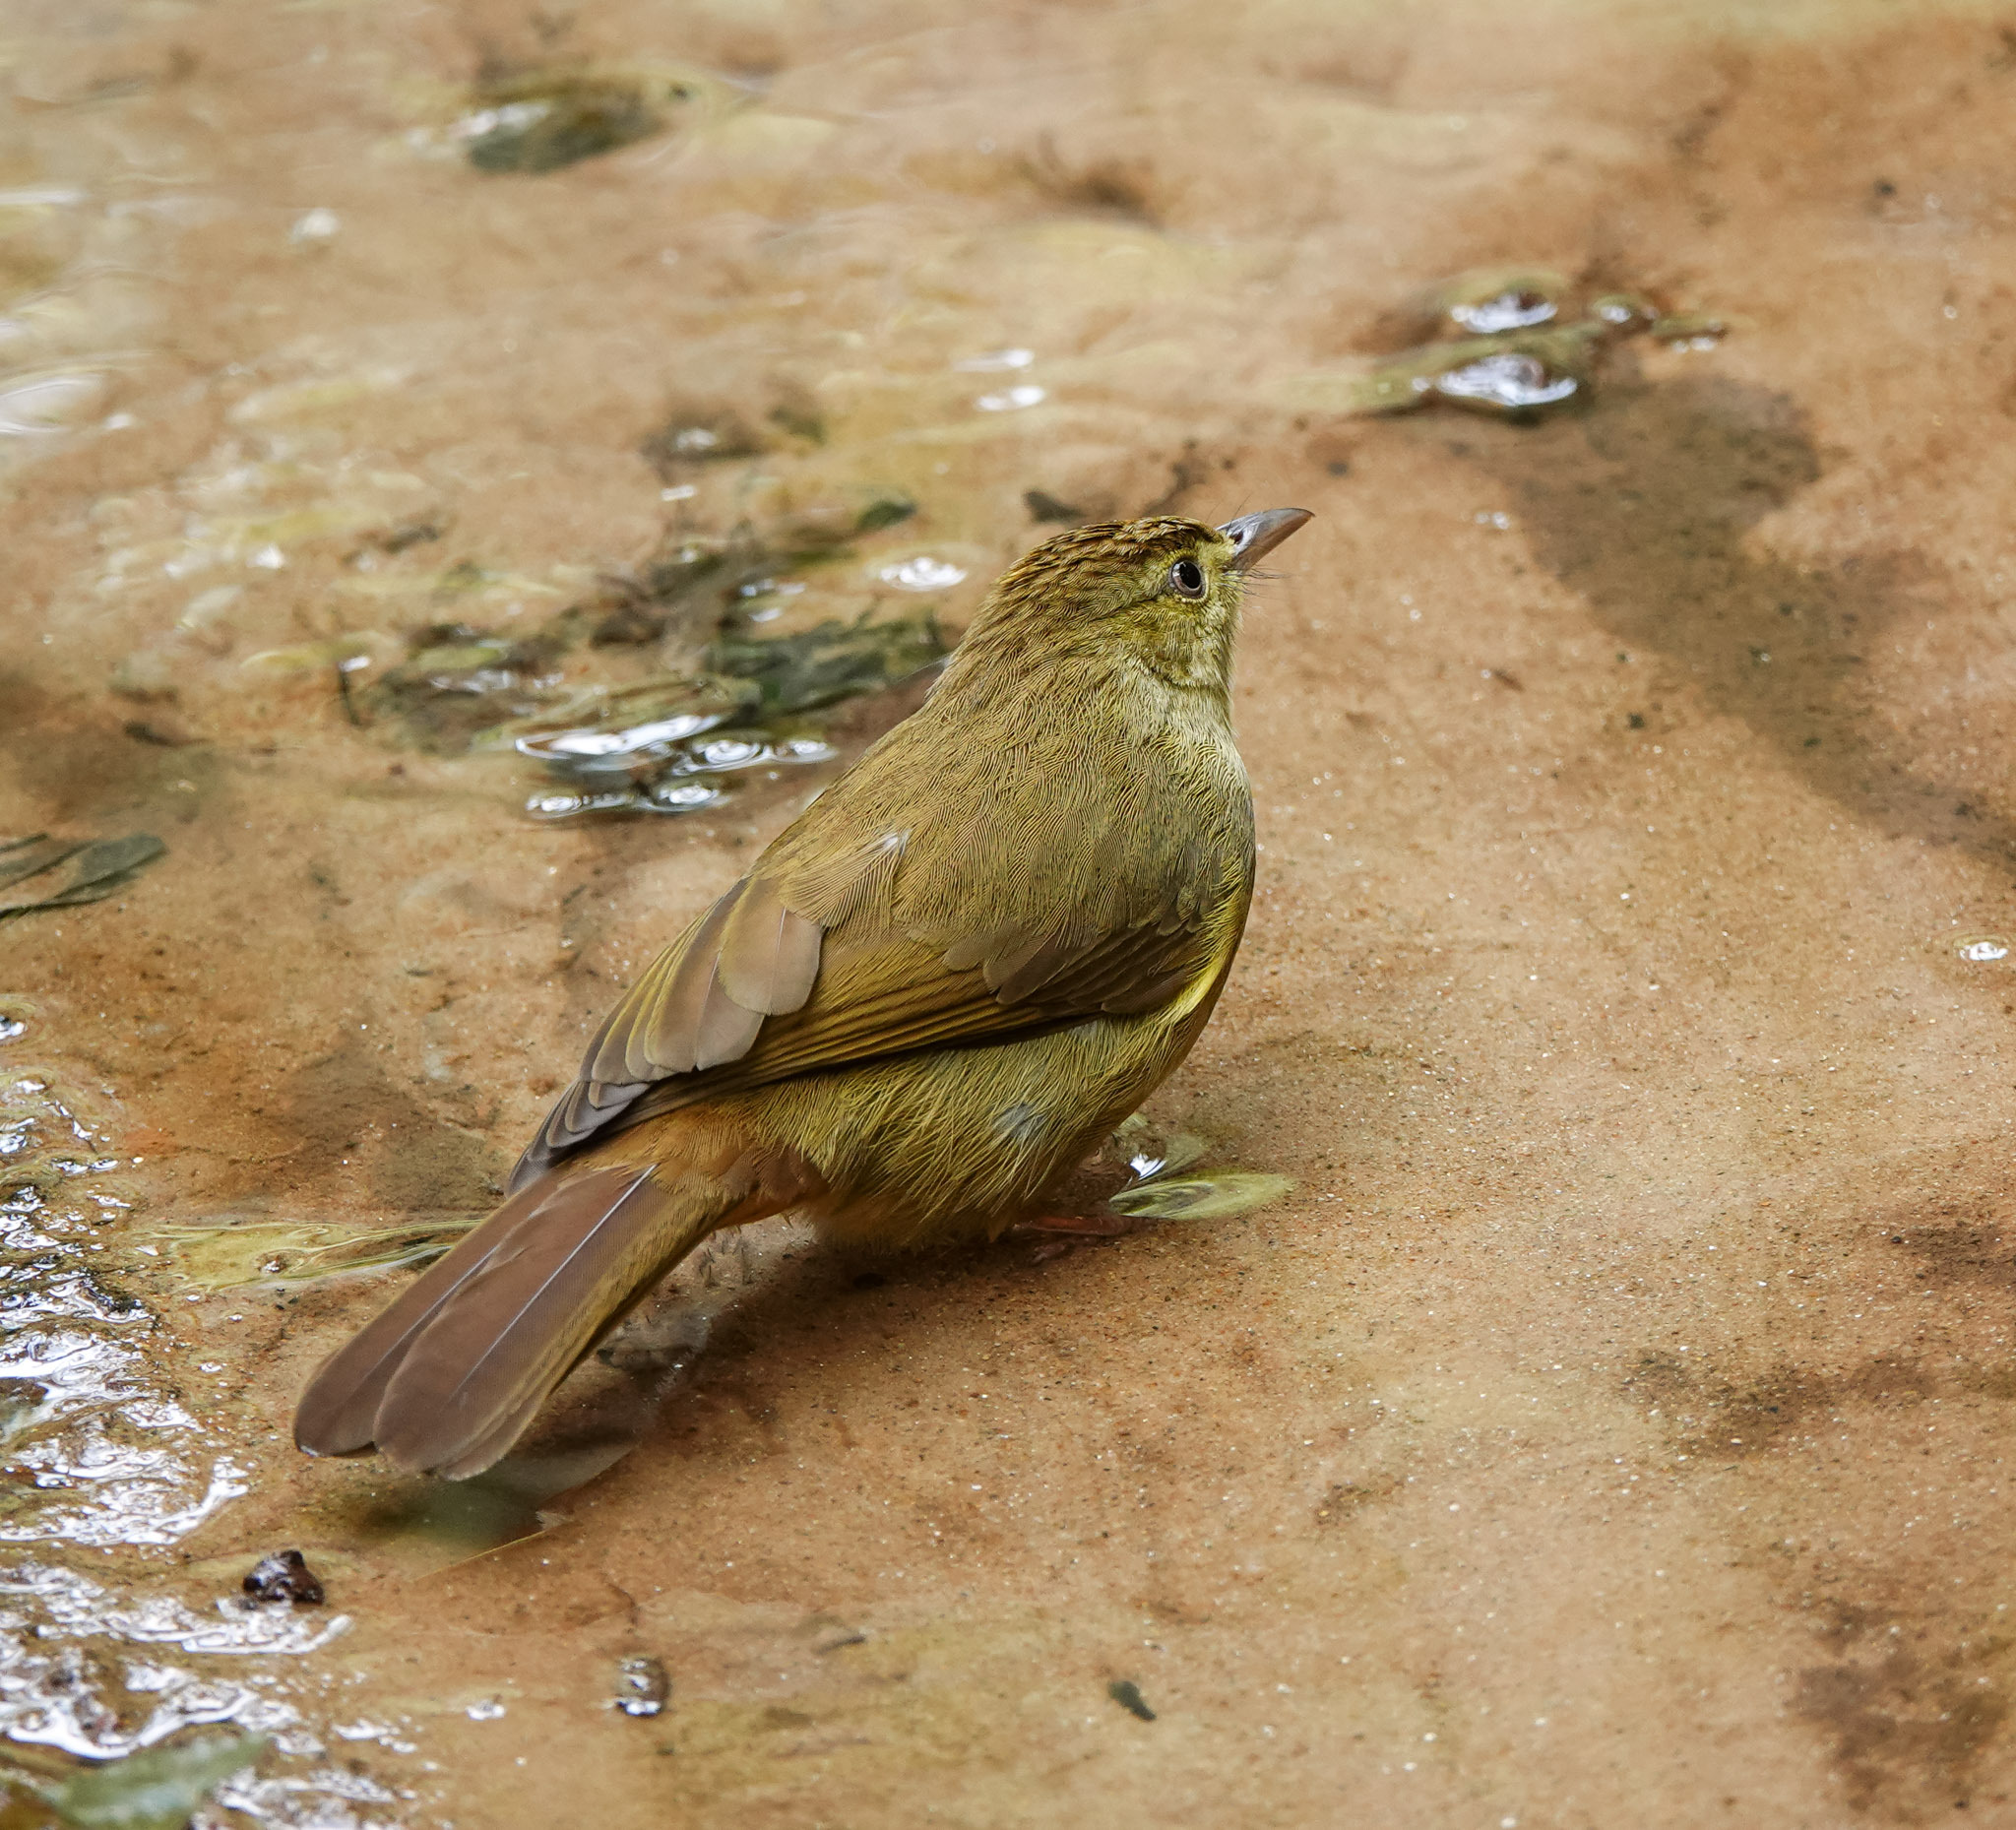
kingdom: Animalia
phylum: Chordata
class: Aves
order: Passeriformes
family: Pycnonotidae
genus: Iole
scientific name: Iole virescens
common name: Olive bulbul
